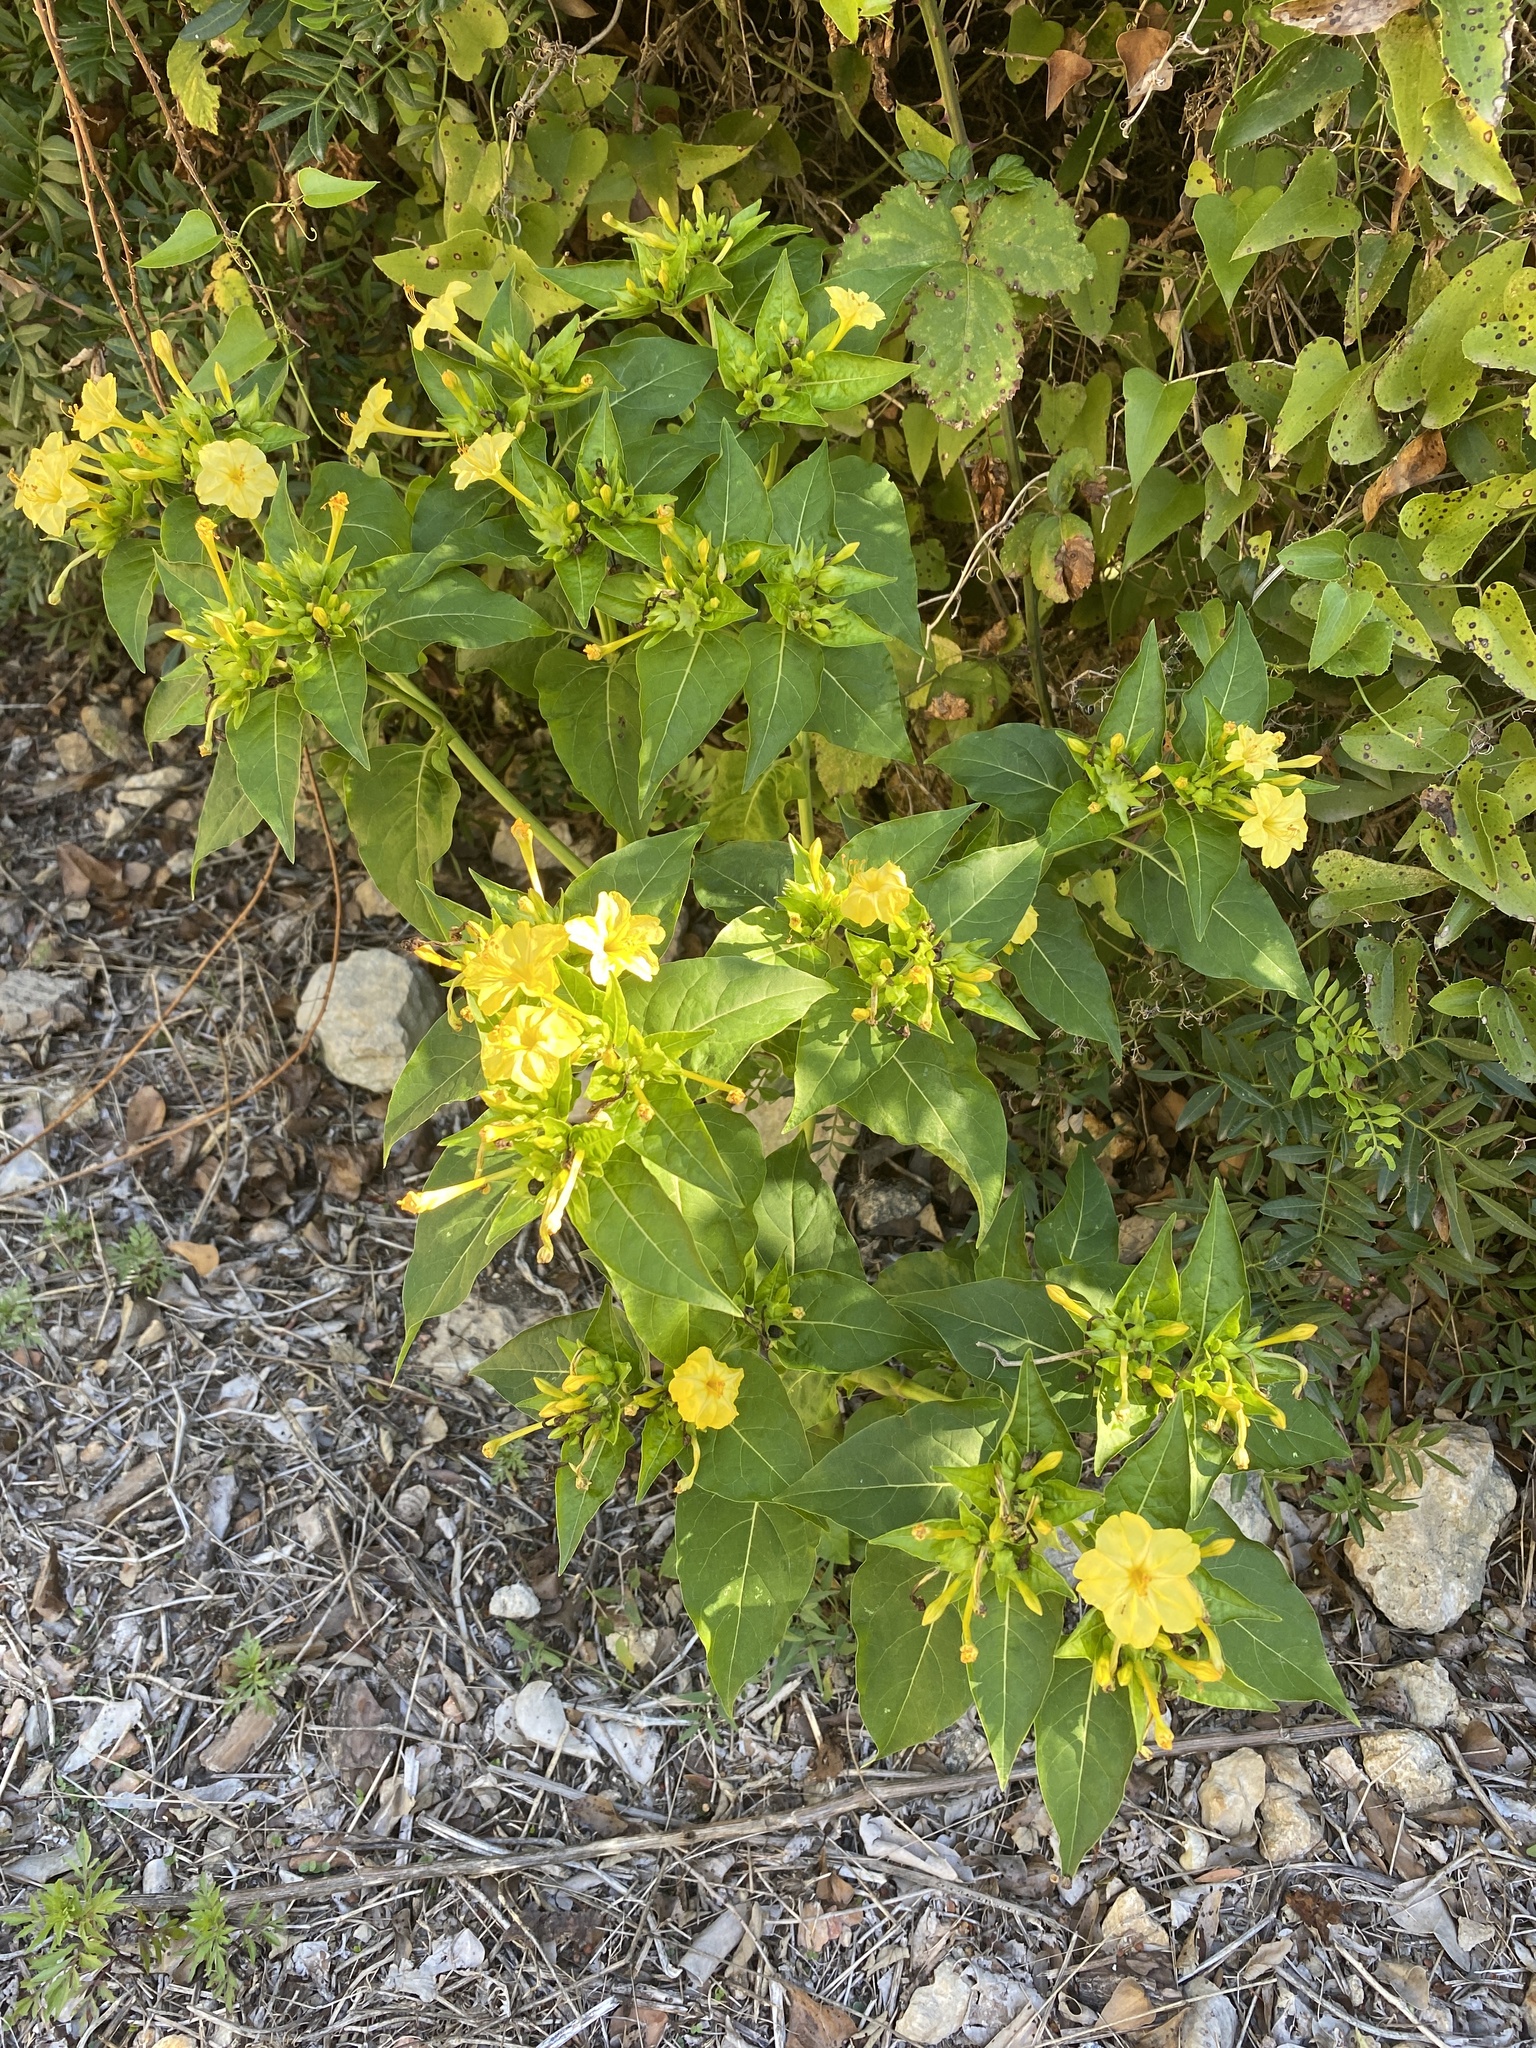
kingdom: Plantae
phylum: Tracheophyta
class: Magnoliopsida
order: Caryophyllales
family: Nyctaginaceae
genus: Mirabilis
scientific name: Mirabilis jalapa
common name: Marvel-of-peru
